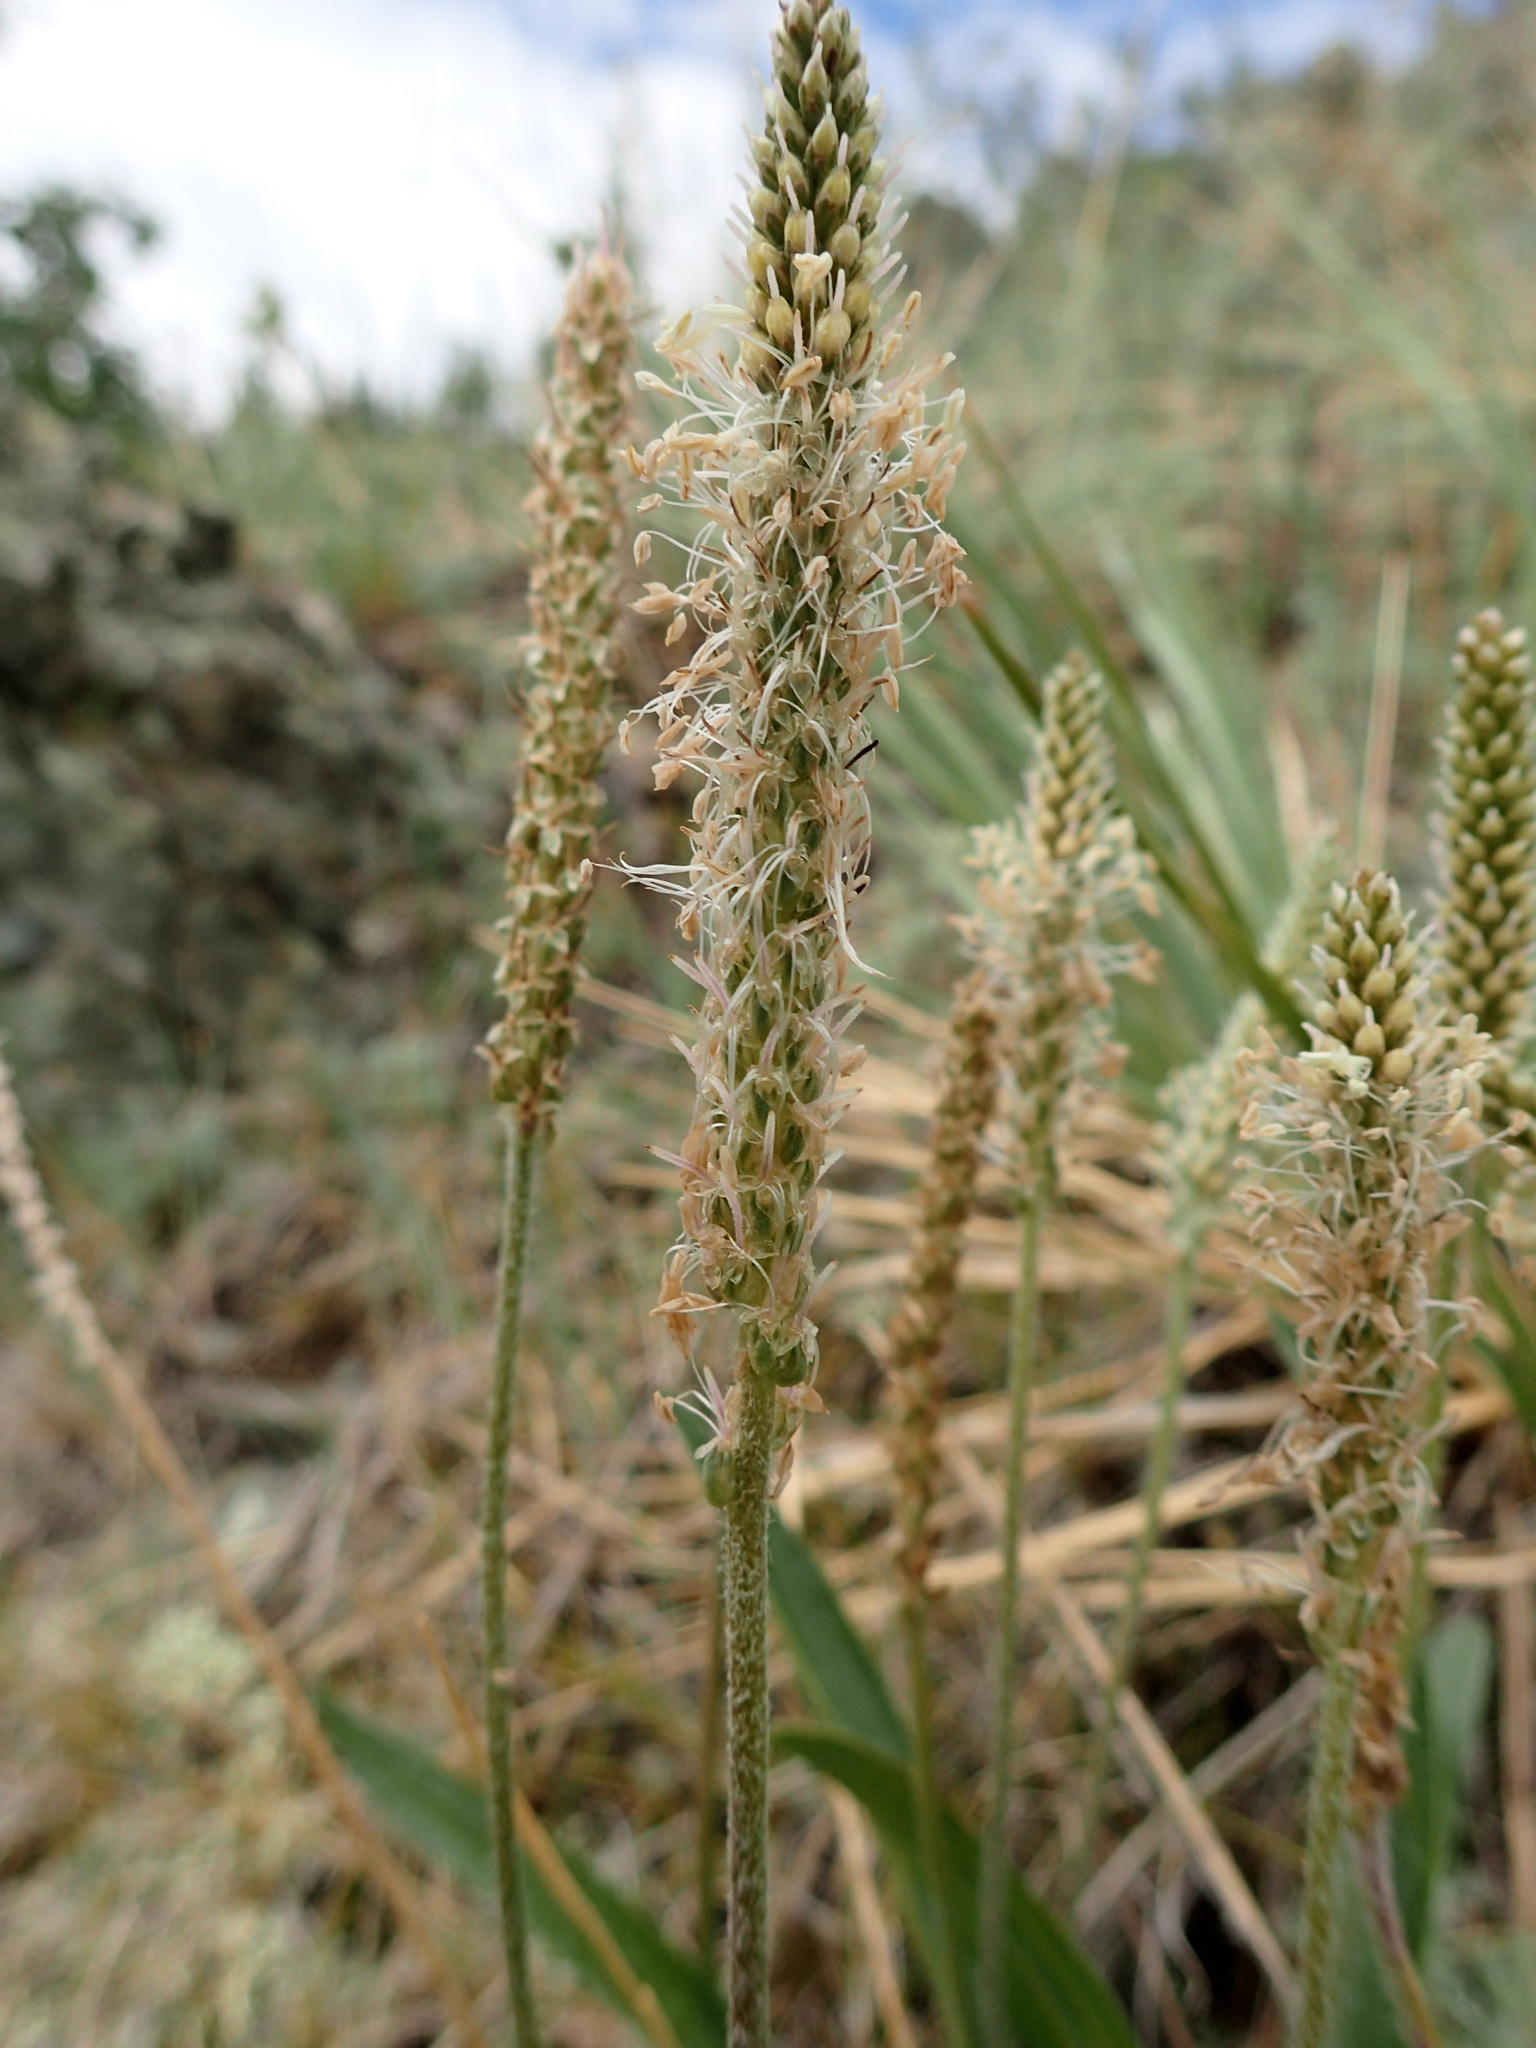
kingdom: Plantae
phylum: Tracheophyta
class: Magnoliopsida
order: Lamiales
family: Plantaginaceae
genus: Plantago
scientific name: Plantago canescens
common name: Siberian plantain
